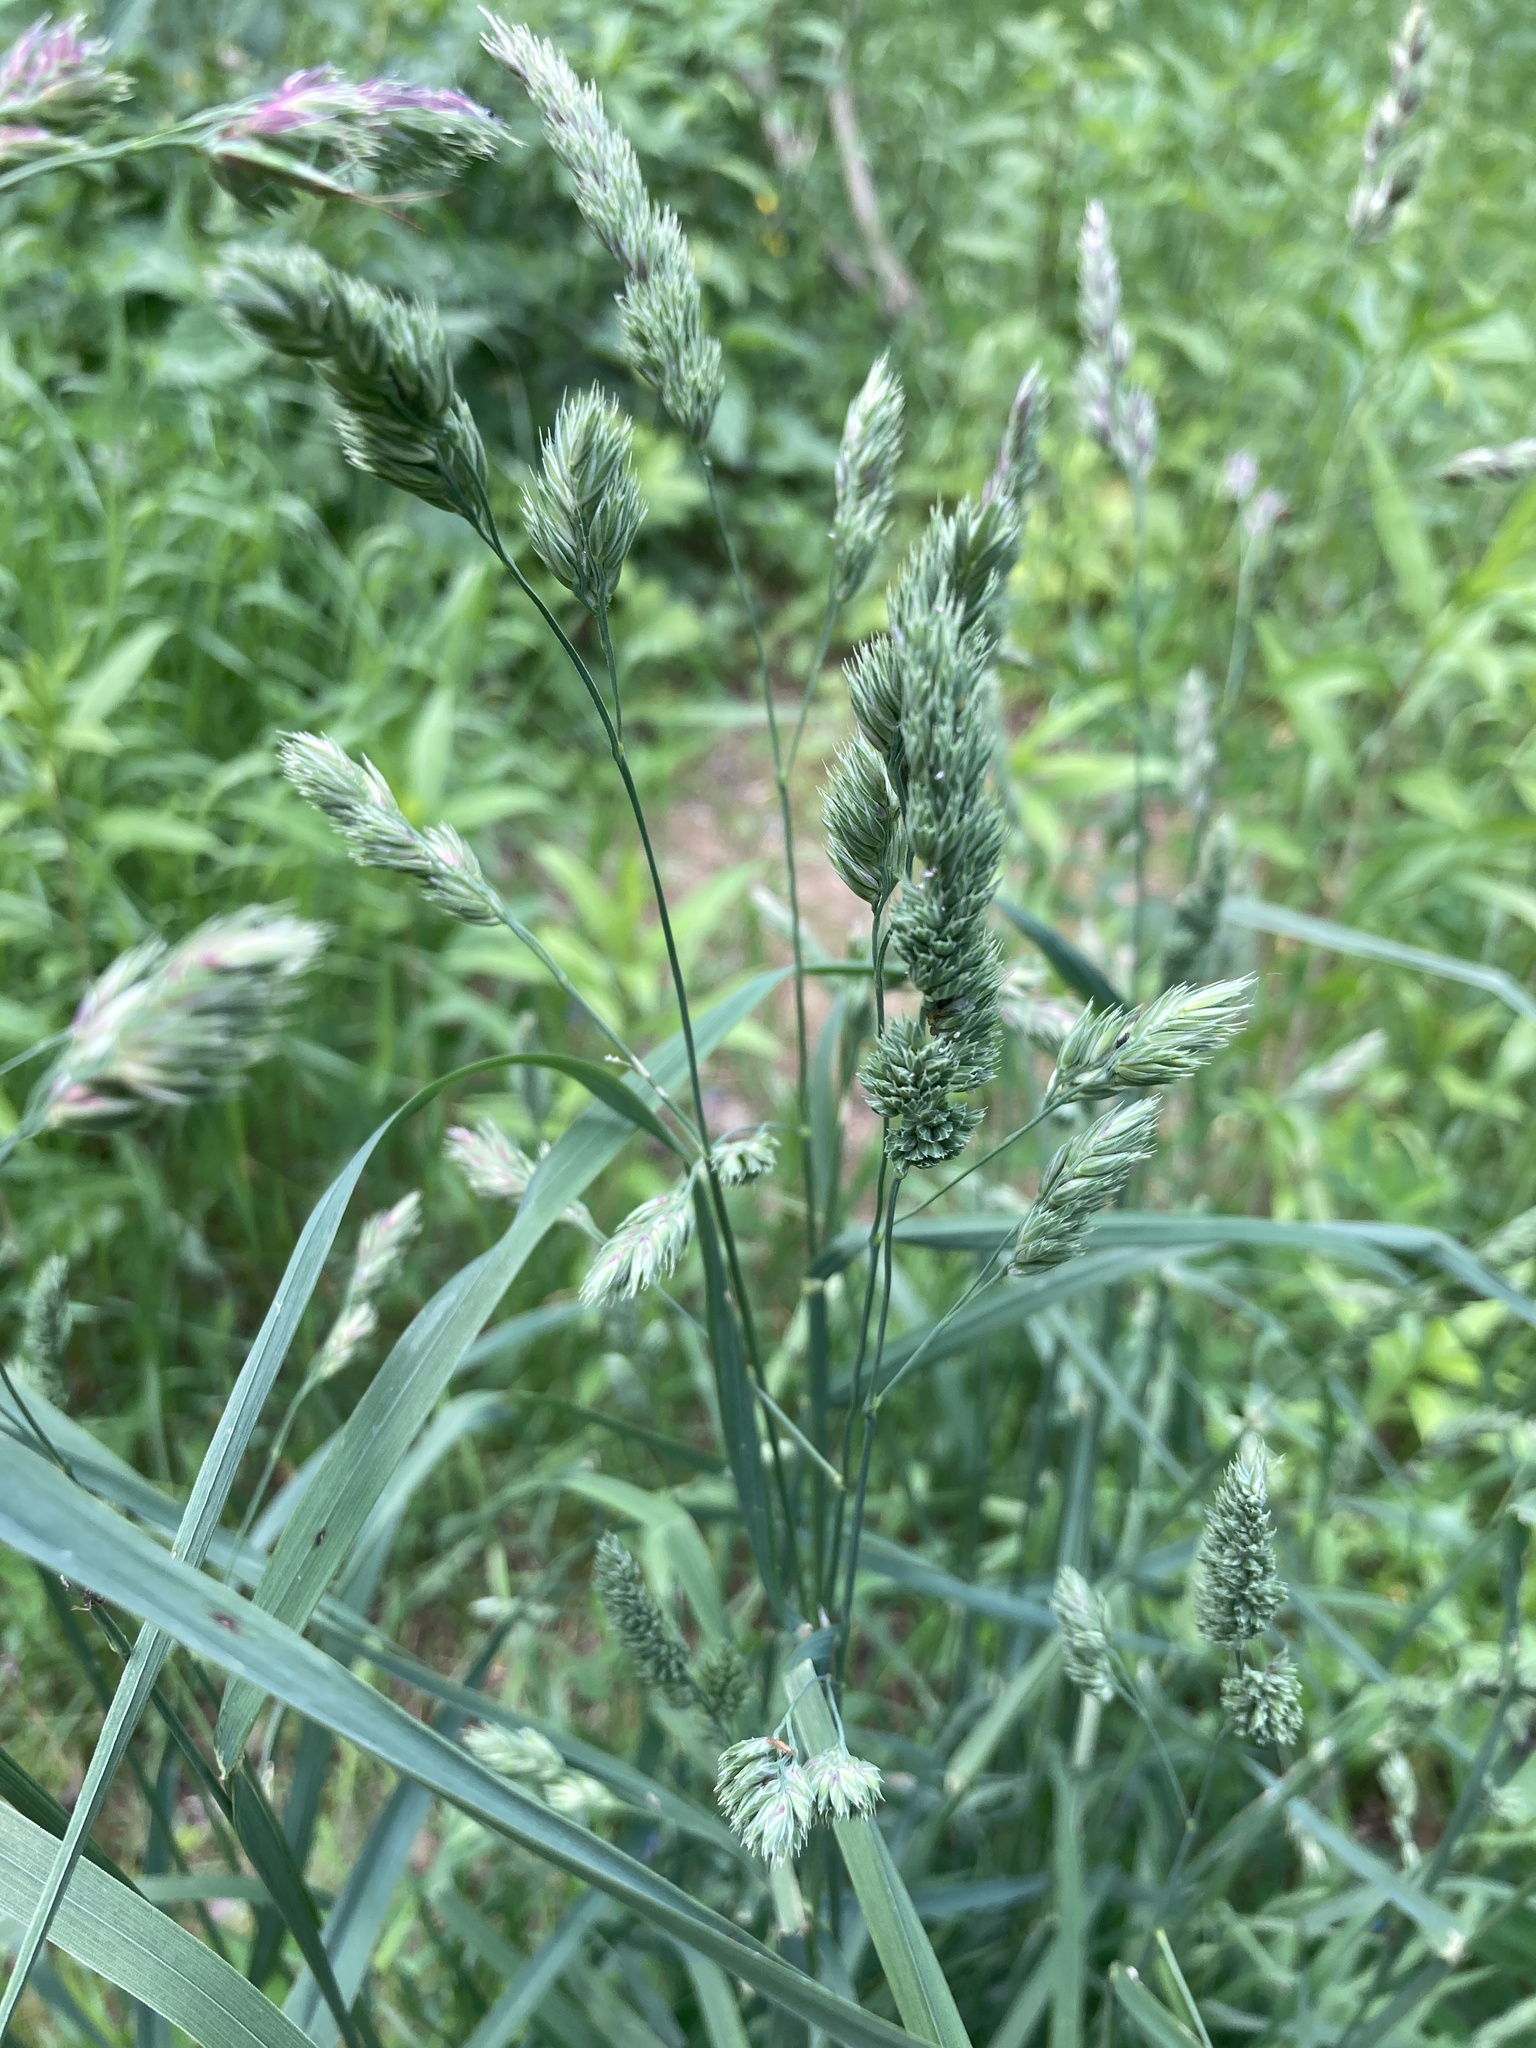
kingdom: Plantae
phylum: Tracheophyta
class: Liliopsida
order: Poales
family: Poaceae
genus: Dactylis
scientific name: Dactylis glomerata
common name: Orchardgrass
